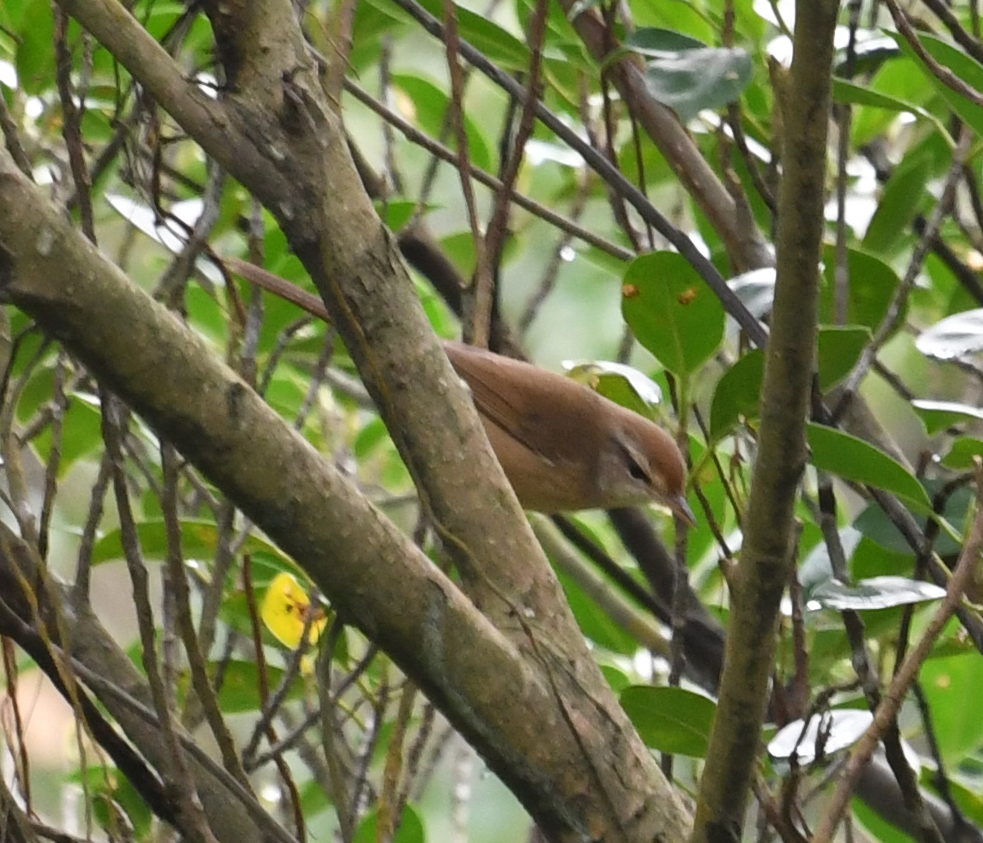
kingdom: Animalia
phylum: Chordata
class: Aves
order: Passeriformes
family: Cettiidae
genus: Horornis
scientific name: Horornis diphone
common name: Japanese bush warbler
